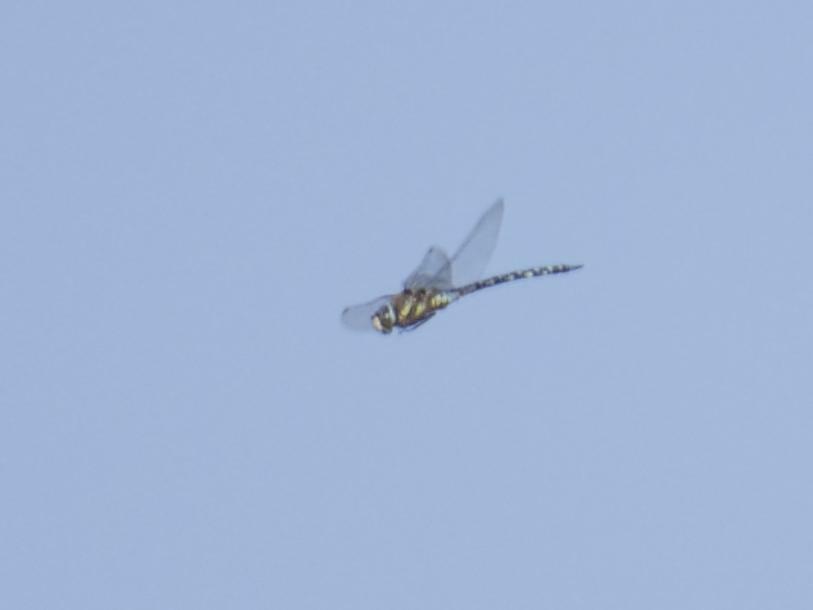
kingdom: Animalia
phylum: Arthropoda
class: Insecta
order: Odonata
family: Aeshnidae
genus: Aeshna
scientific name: Aeshna mixta
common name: Migrant hawker
